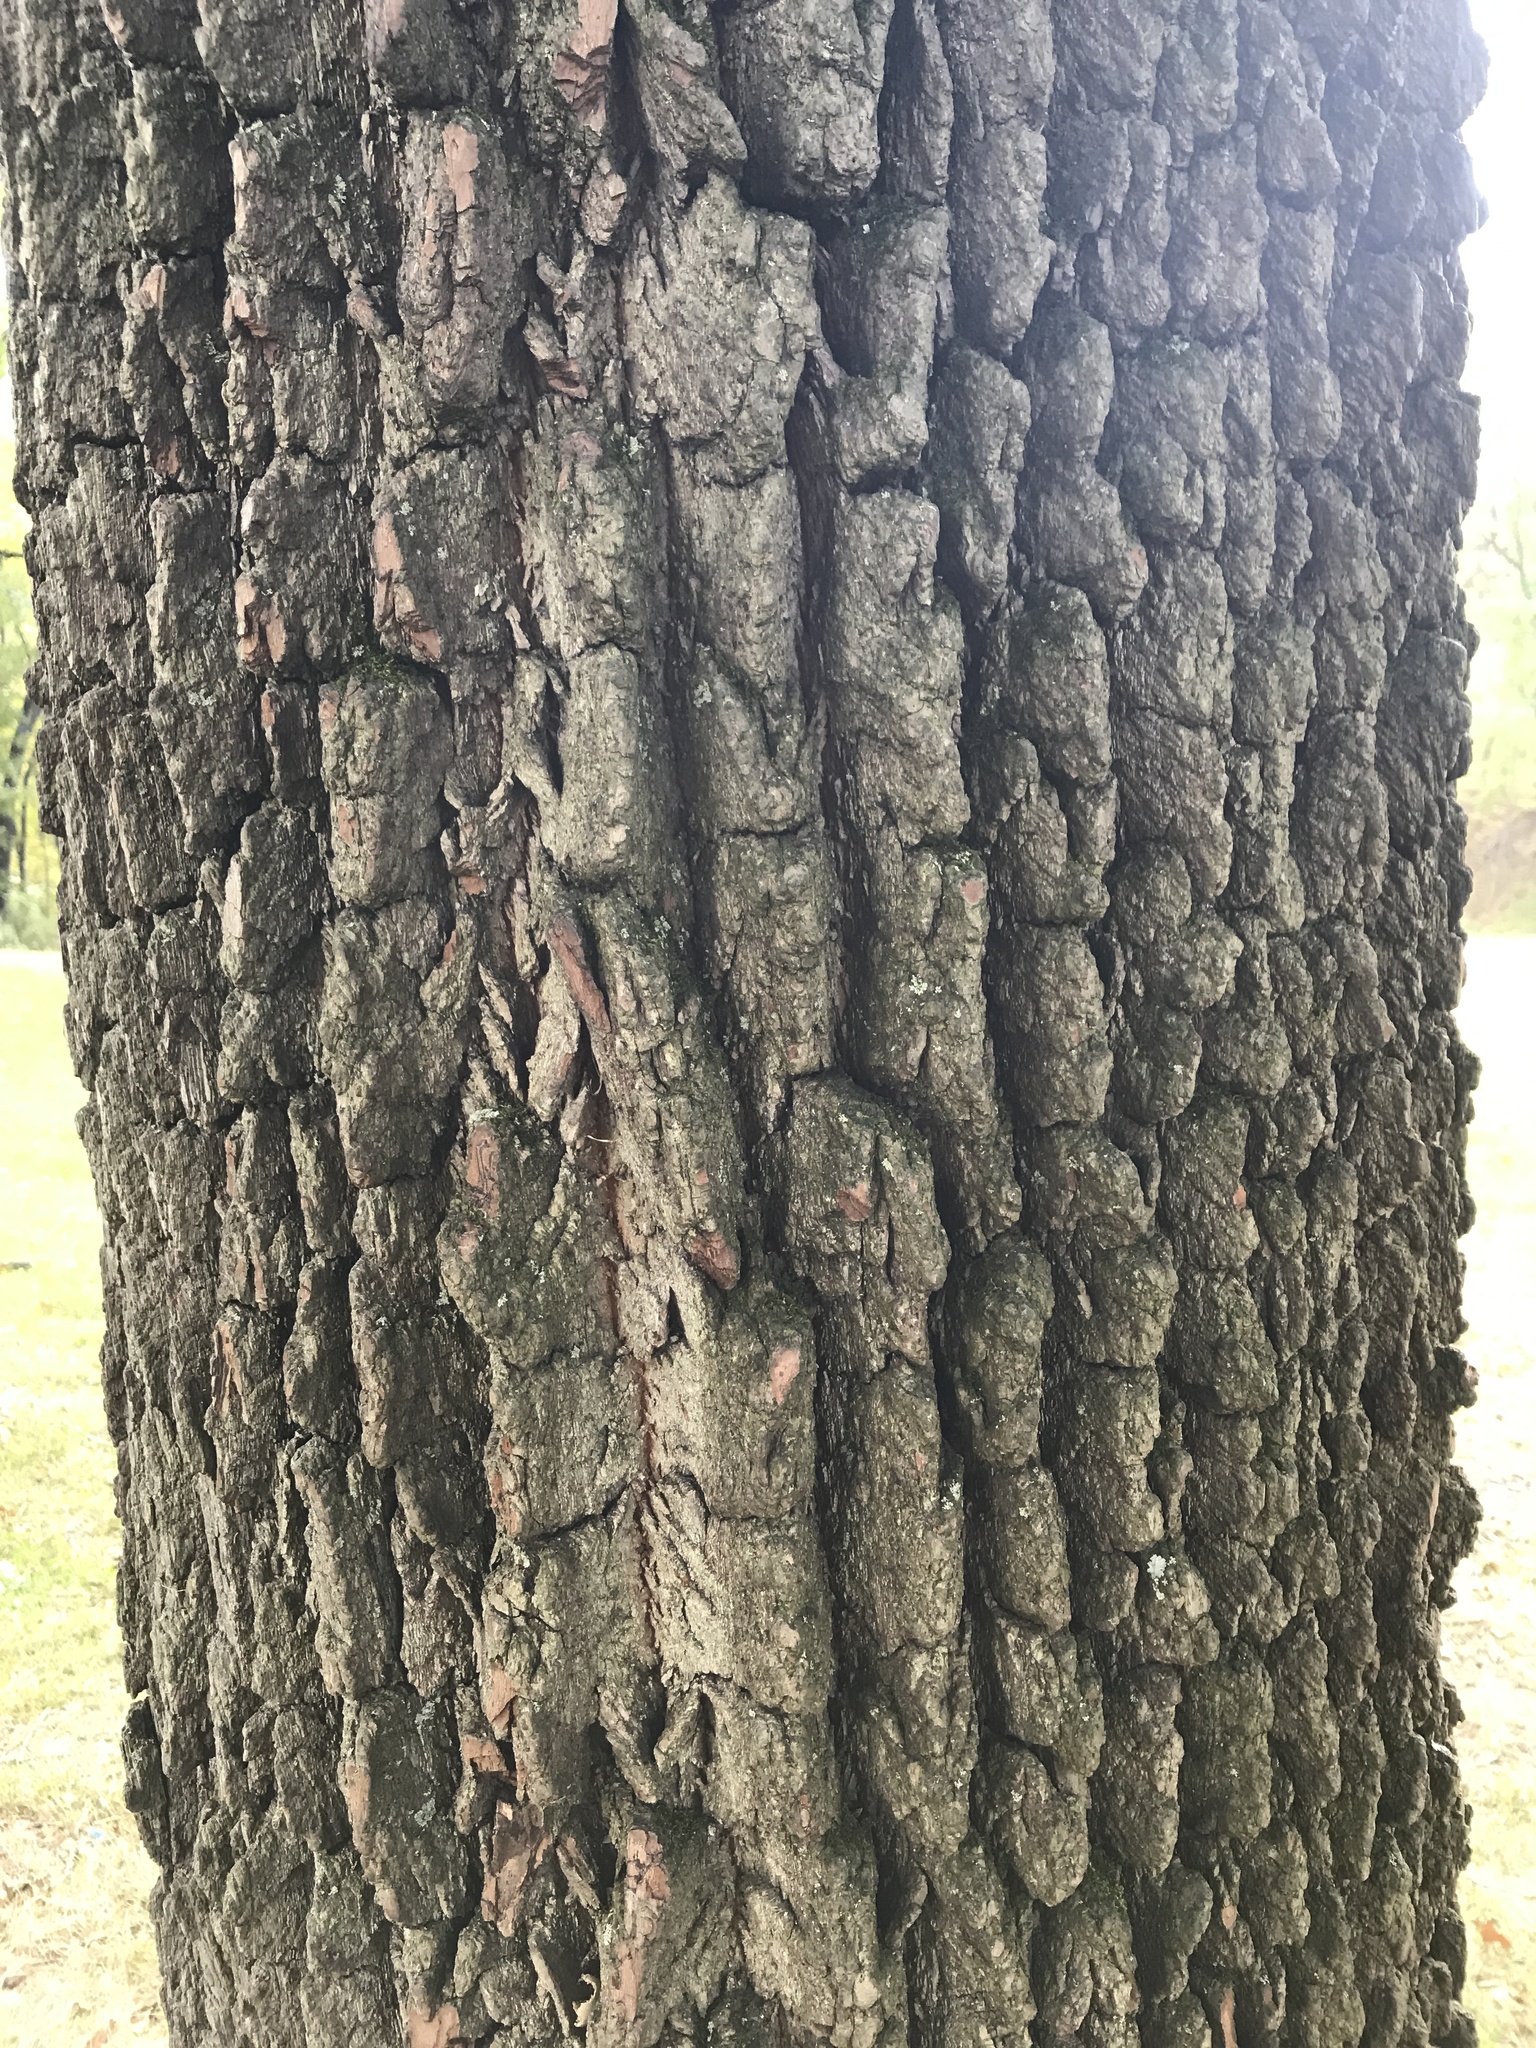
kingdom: Plantae
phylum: Tracheophyta
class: Magnoliopsida
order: Ericales
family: Ebenaceae
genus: Diospyros
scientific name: Diospyros virginiana
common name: Persimmon
